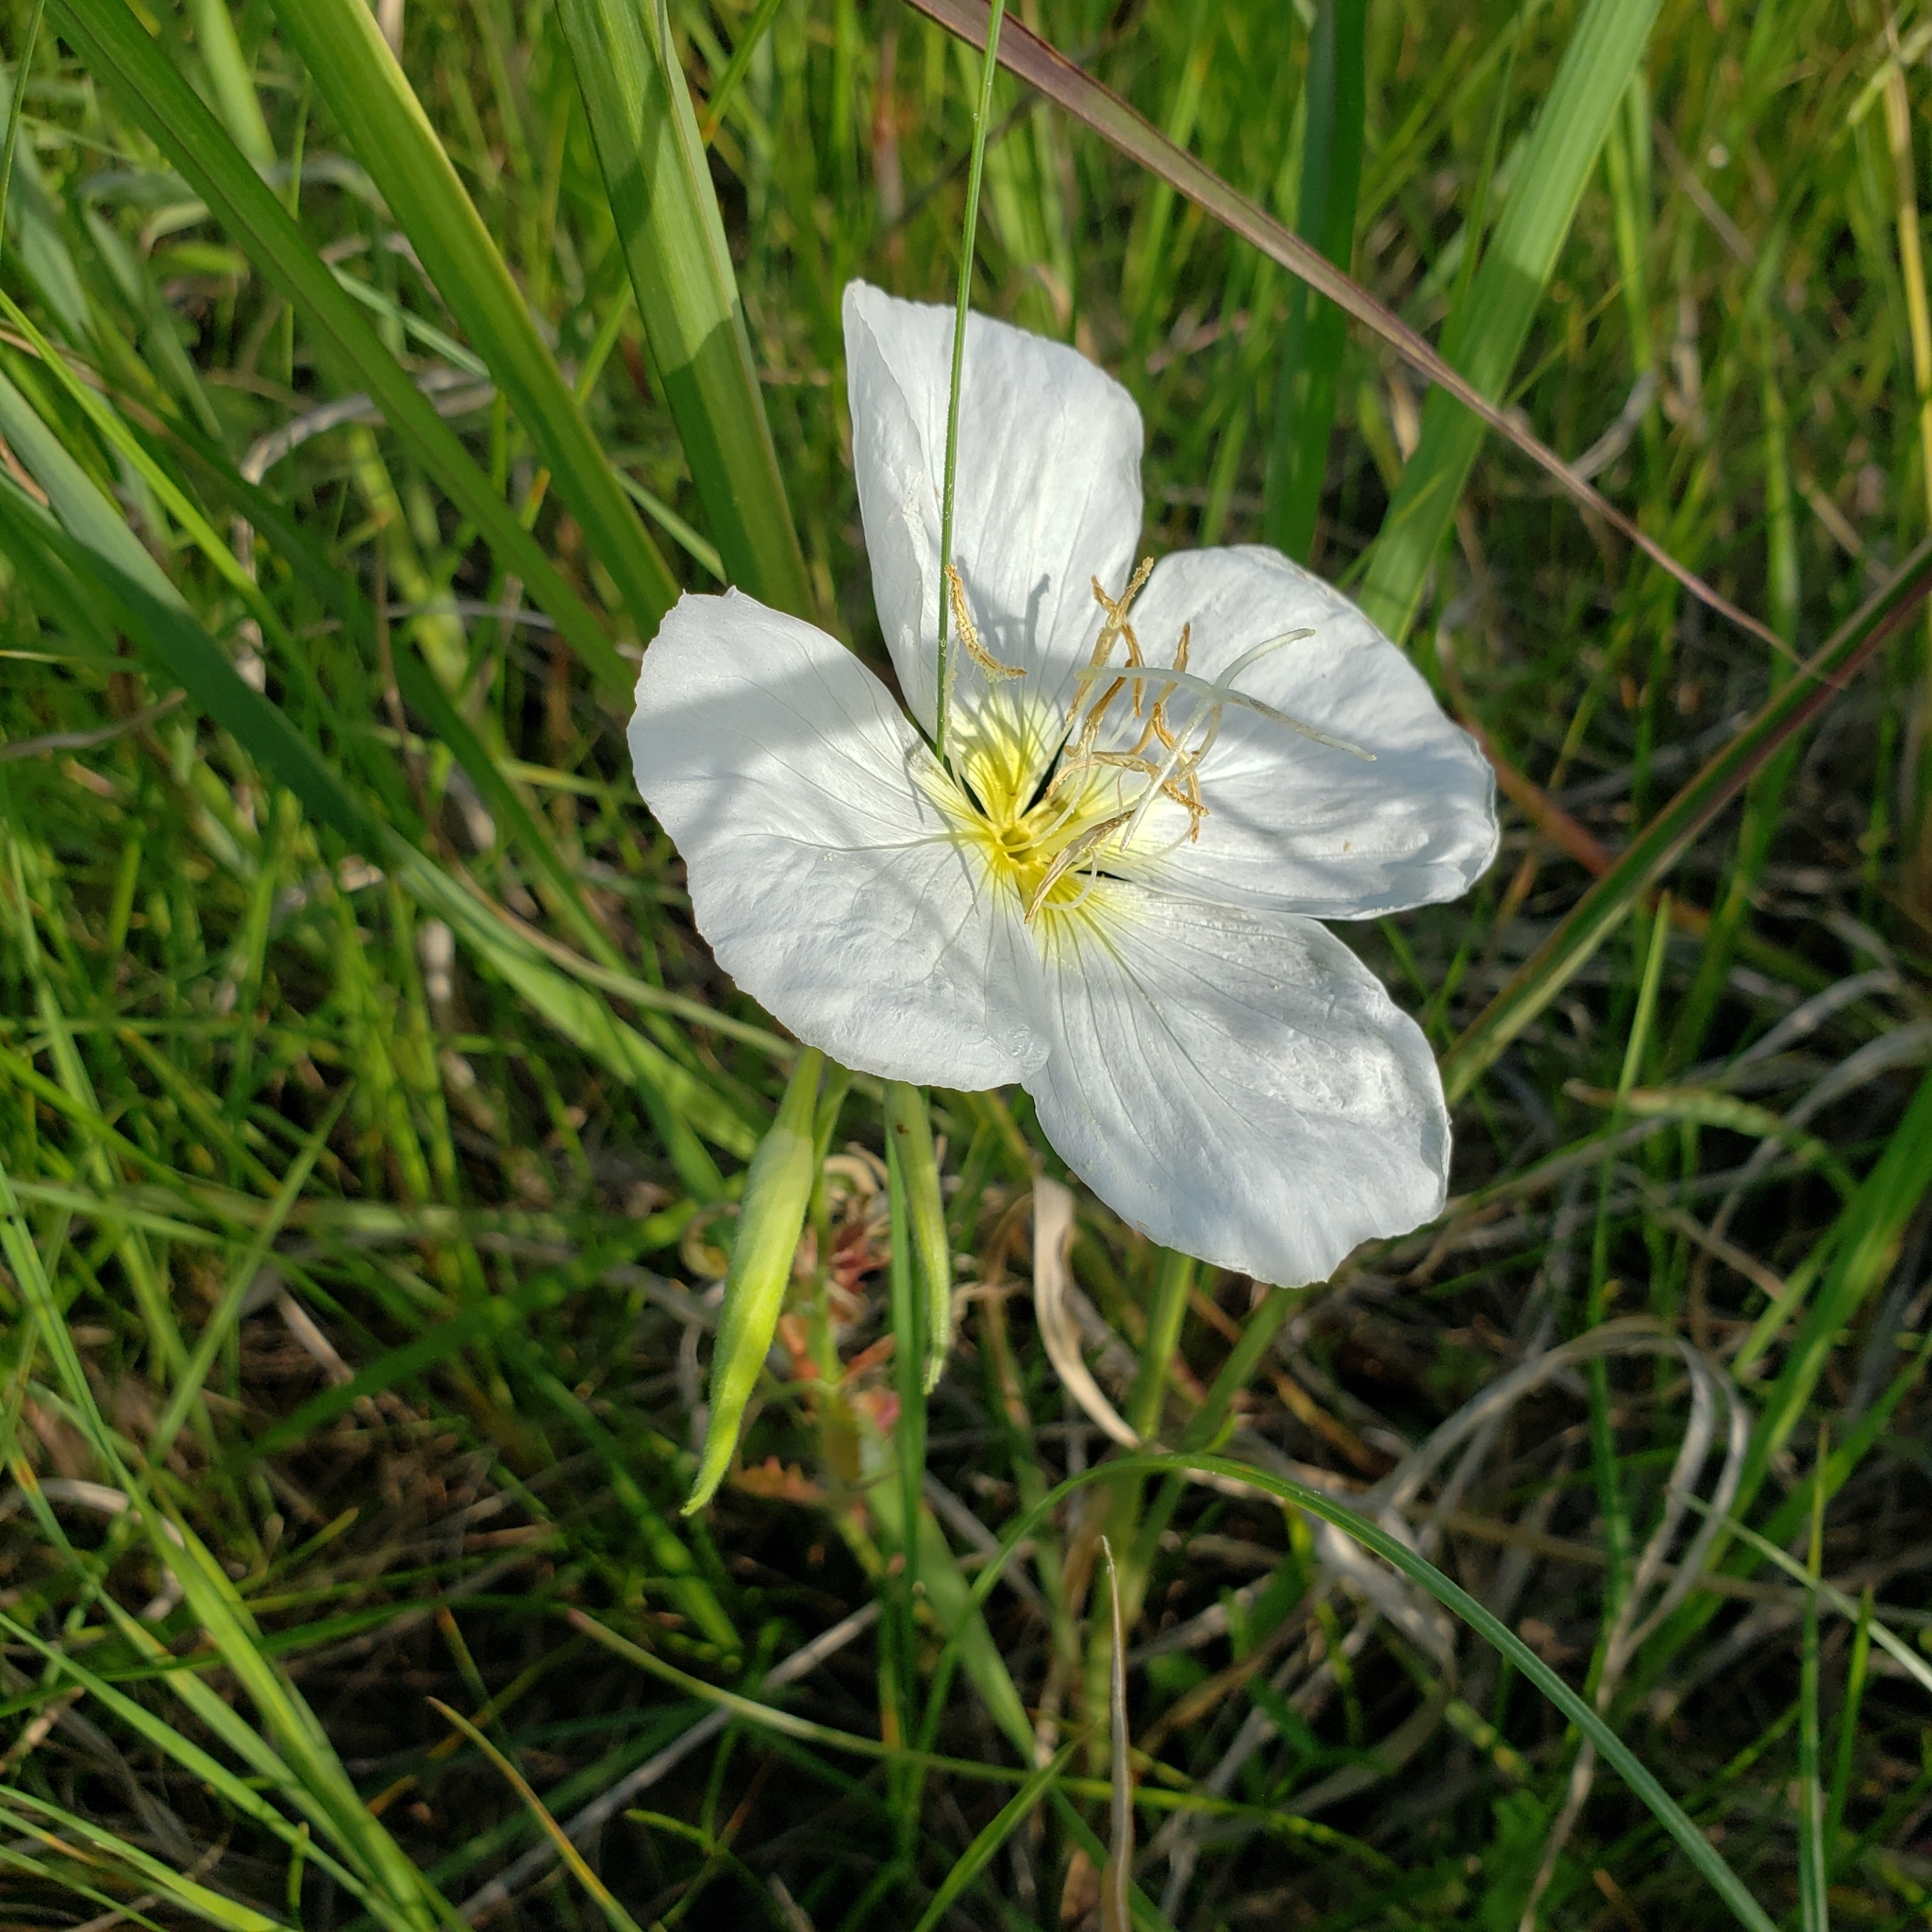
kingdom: Plantae
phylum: Tracheophyta
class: Magnoliopsida
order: Myrtales
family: Onagraceae
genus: Oenothera
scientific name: Oenothera speciosa
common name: White evening-primrose
